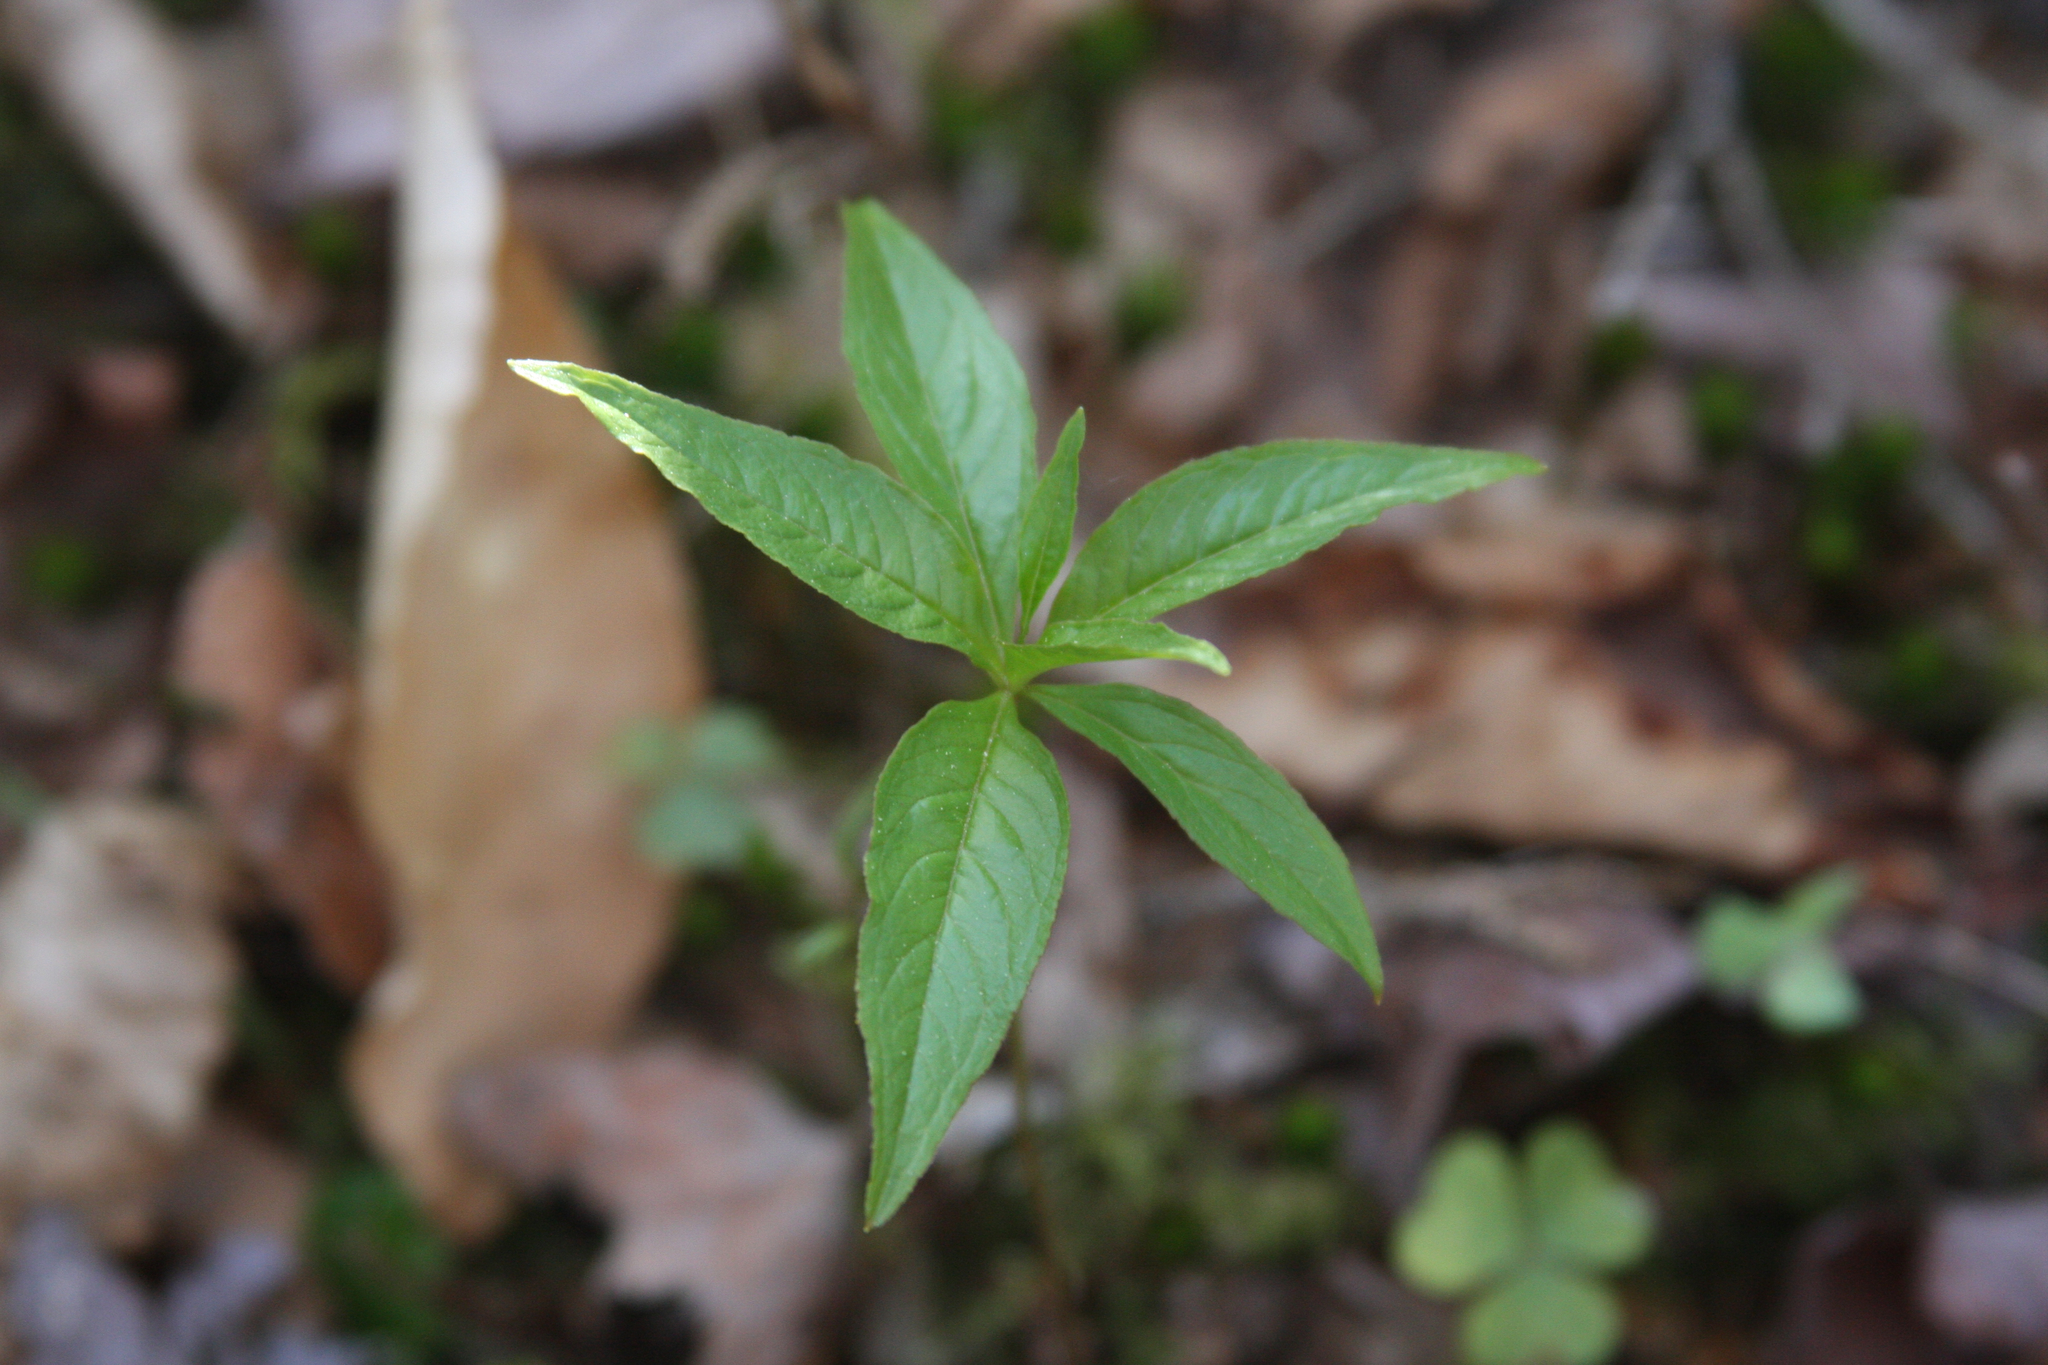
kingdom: Plantae
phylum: Tracheophyta
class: Magnoliopsida
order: Ericales
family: Primulaceae
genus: Lysimachia
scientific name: Lysimachia borealis
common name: American starflower
